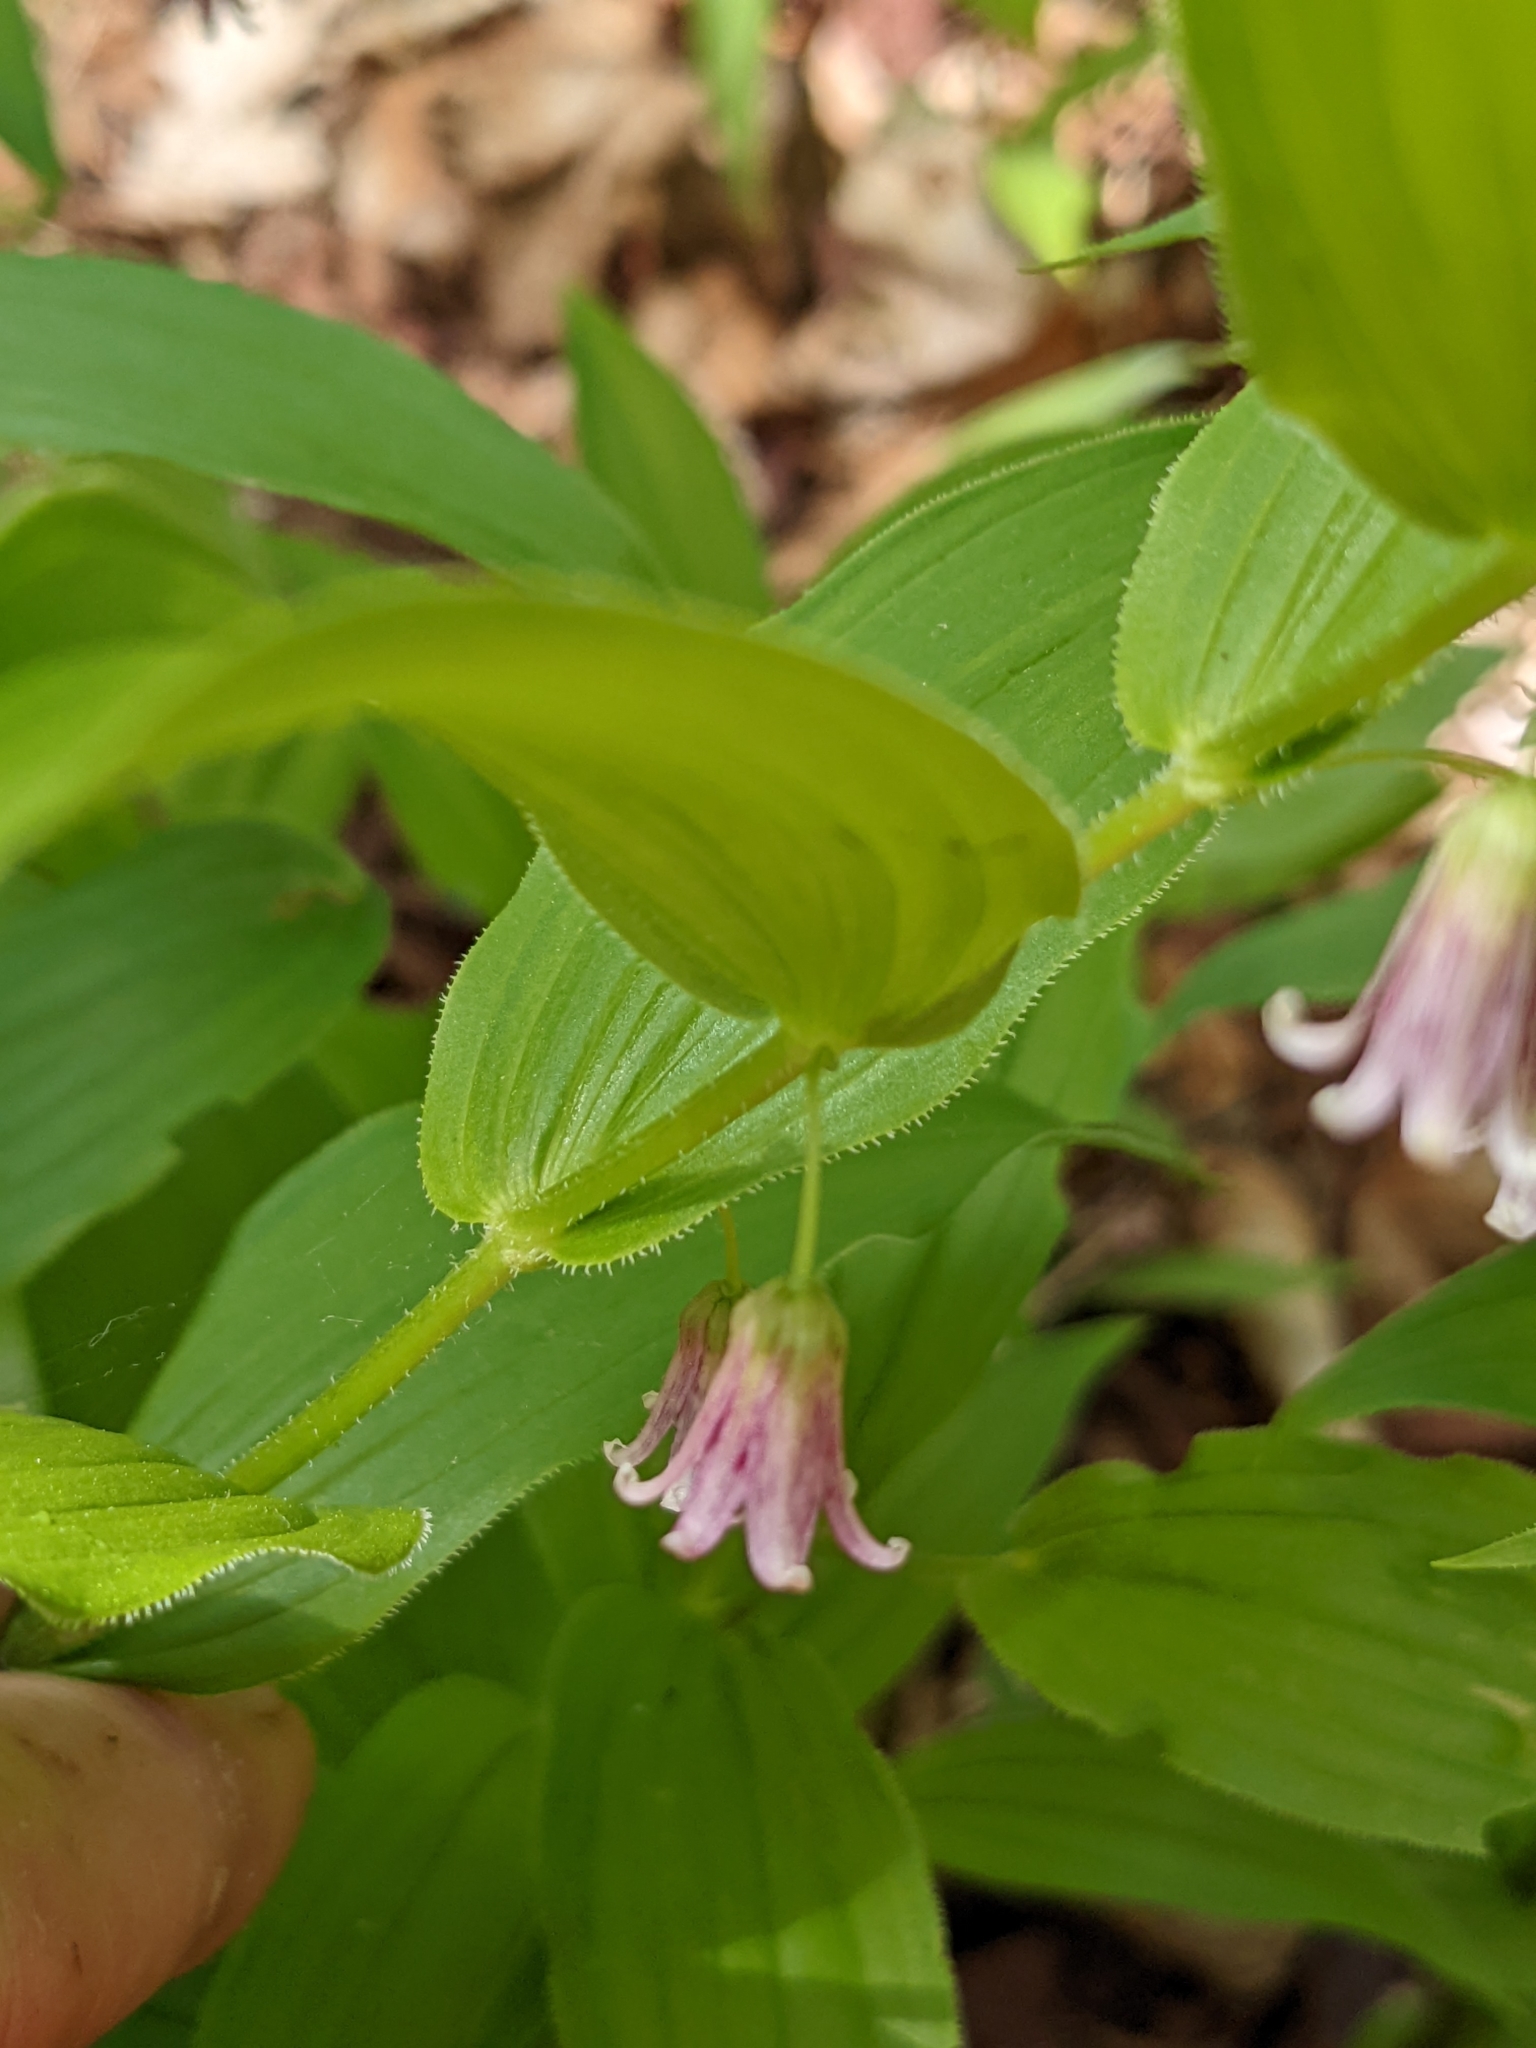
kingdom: Plantae
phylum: Tracheophyta
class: Liliopsida
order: Liliales
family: Liliaceae
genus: Streptopus
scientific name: Streptopus lanceolatus
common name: Rose mandarin
